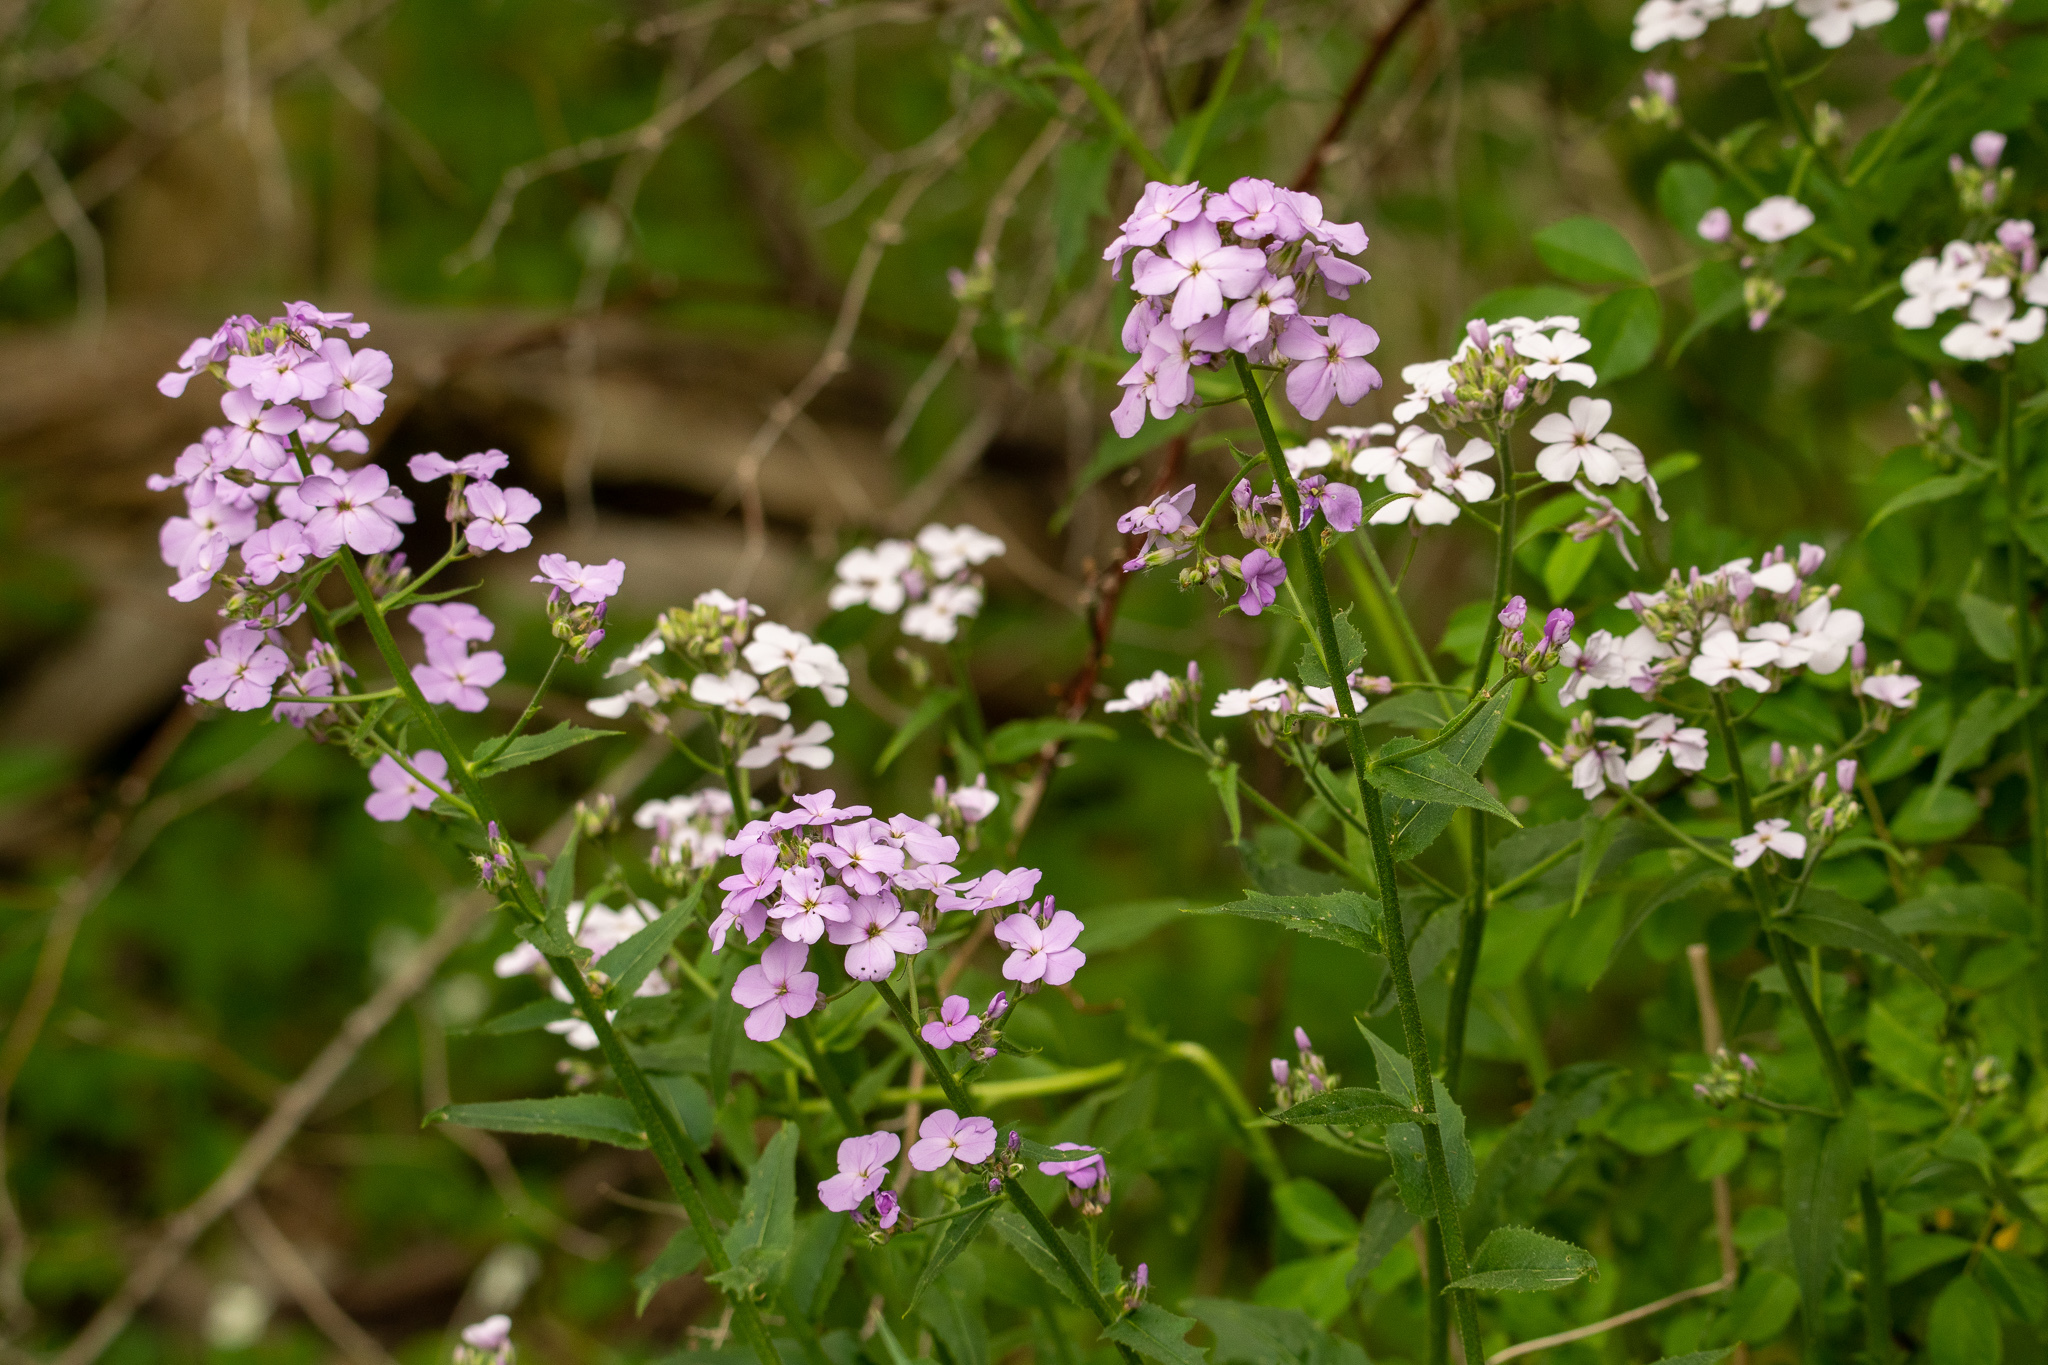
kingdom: Plantae
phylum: Tracheophyta
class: Magnoliopsida
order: Brassicales
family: Brassicaceae
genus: Hesperis
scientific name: Hesperis matronalis
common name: Dame's-violet
